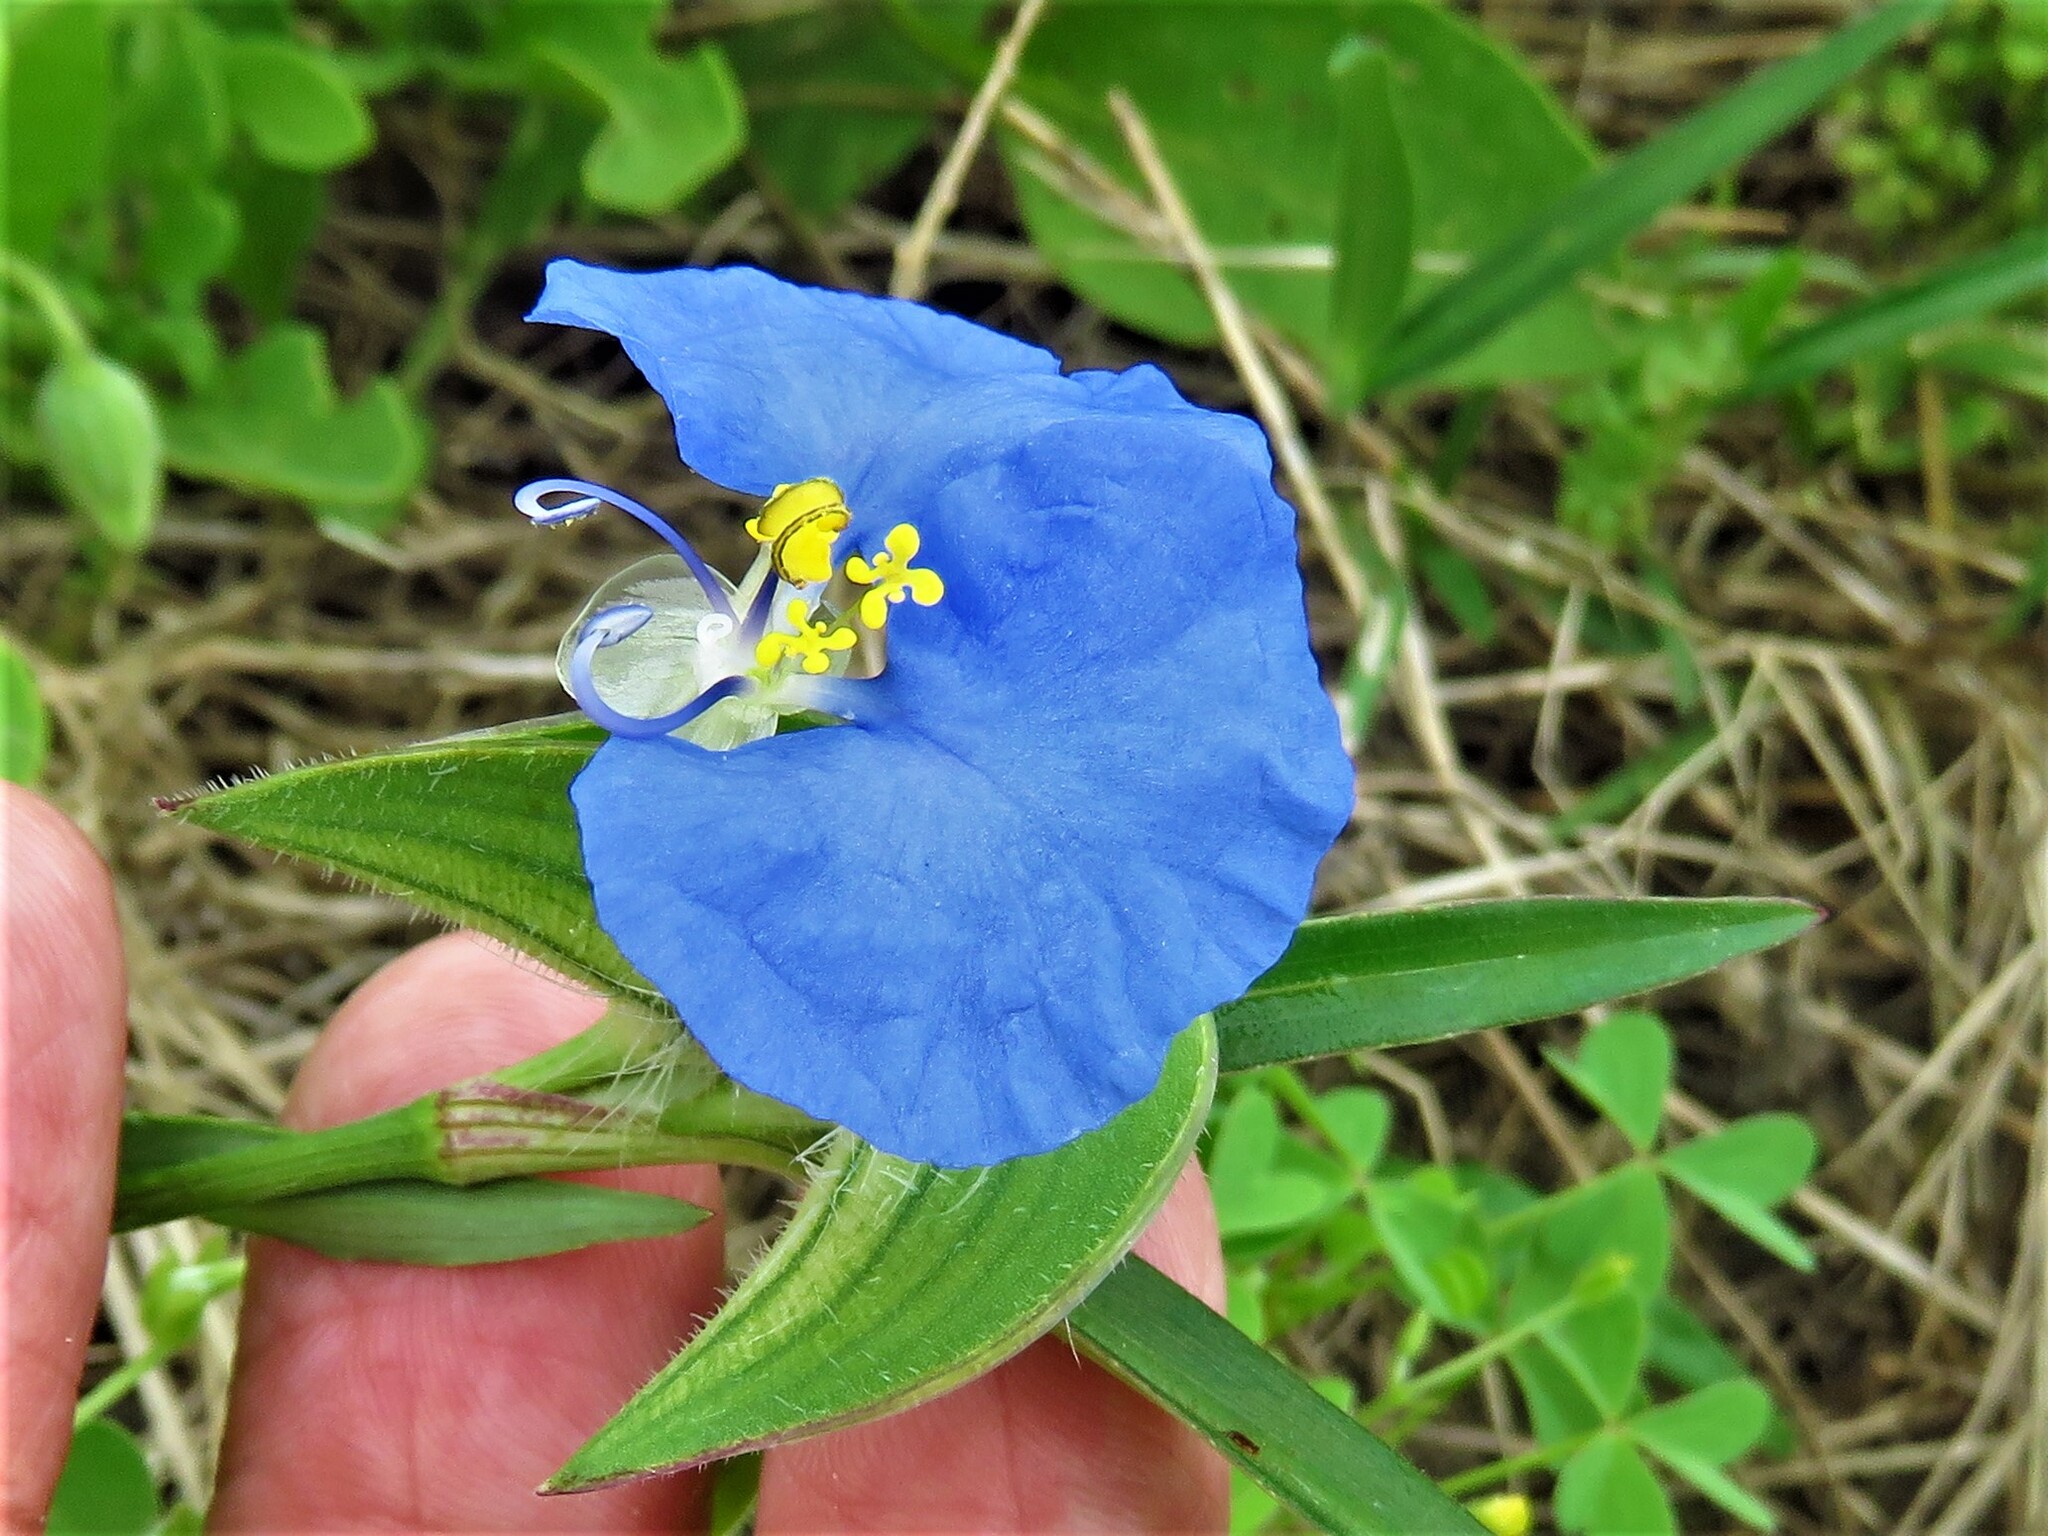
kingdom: Plantae
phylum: Tracheophyta
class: Liliopsida
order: Commelinales
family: Commelinaceae
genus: Commelina
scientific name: Commelina erecta
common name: Blousel blommetjie
